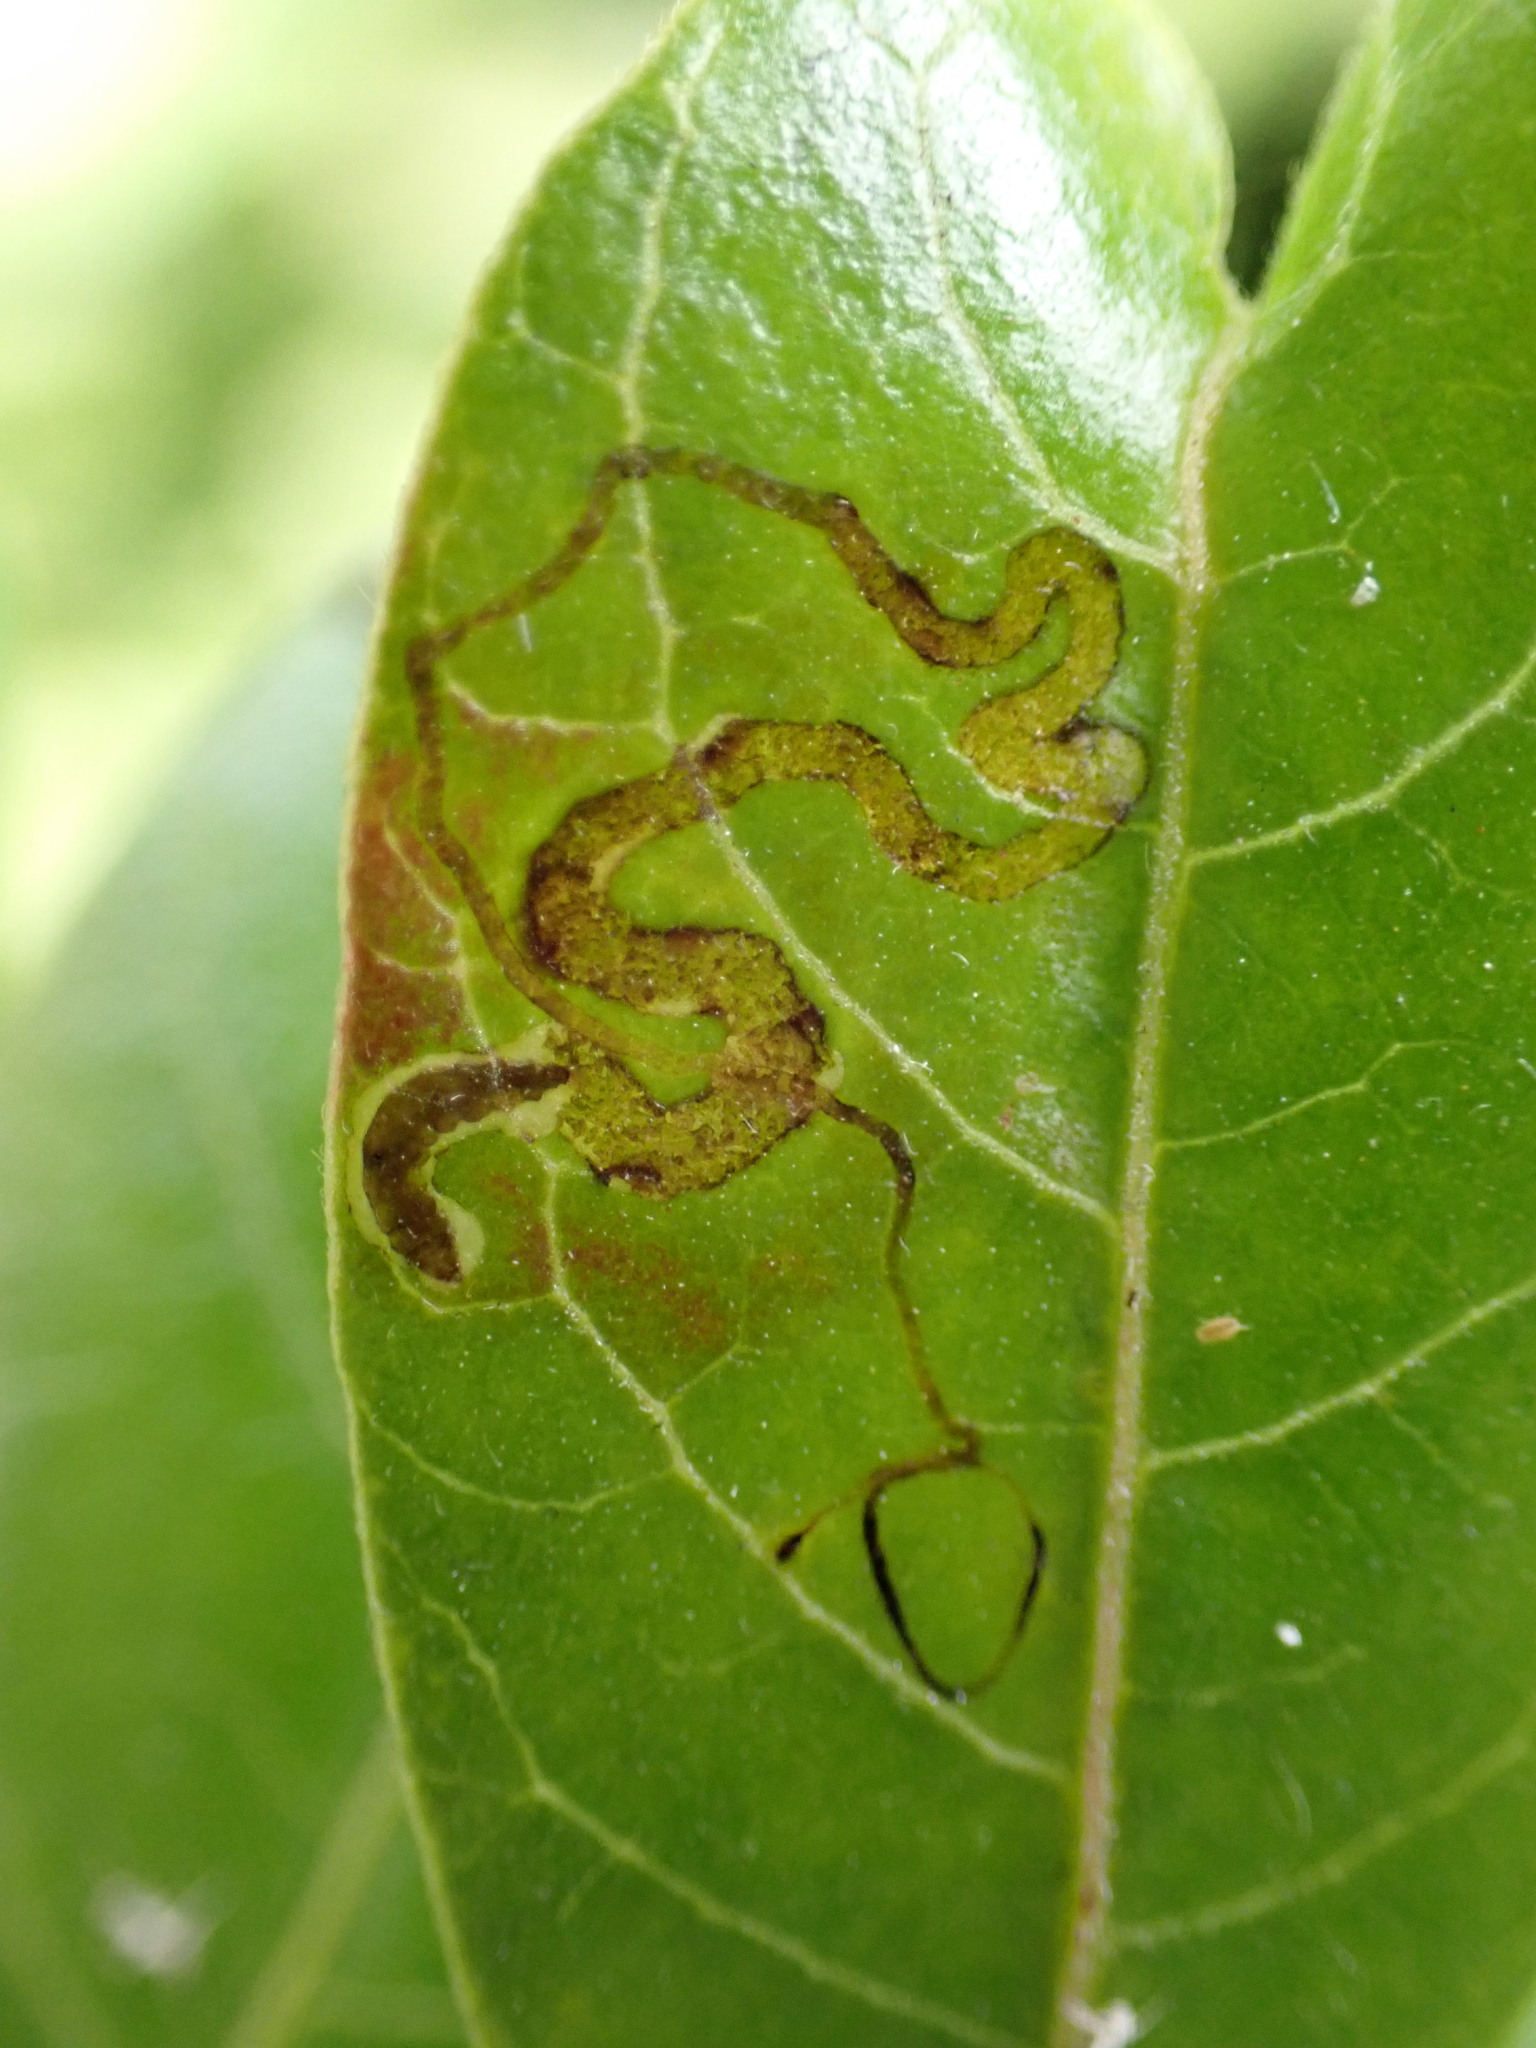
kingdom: Animalia
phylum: Arthropoda
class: Insecta
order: Lepidoptera
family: Nepticulidae
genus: Stigmella
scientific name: Stigmella intermedia
